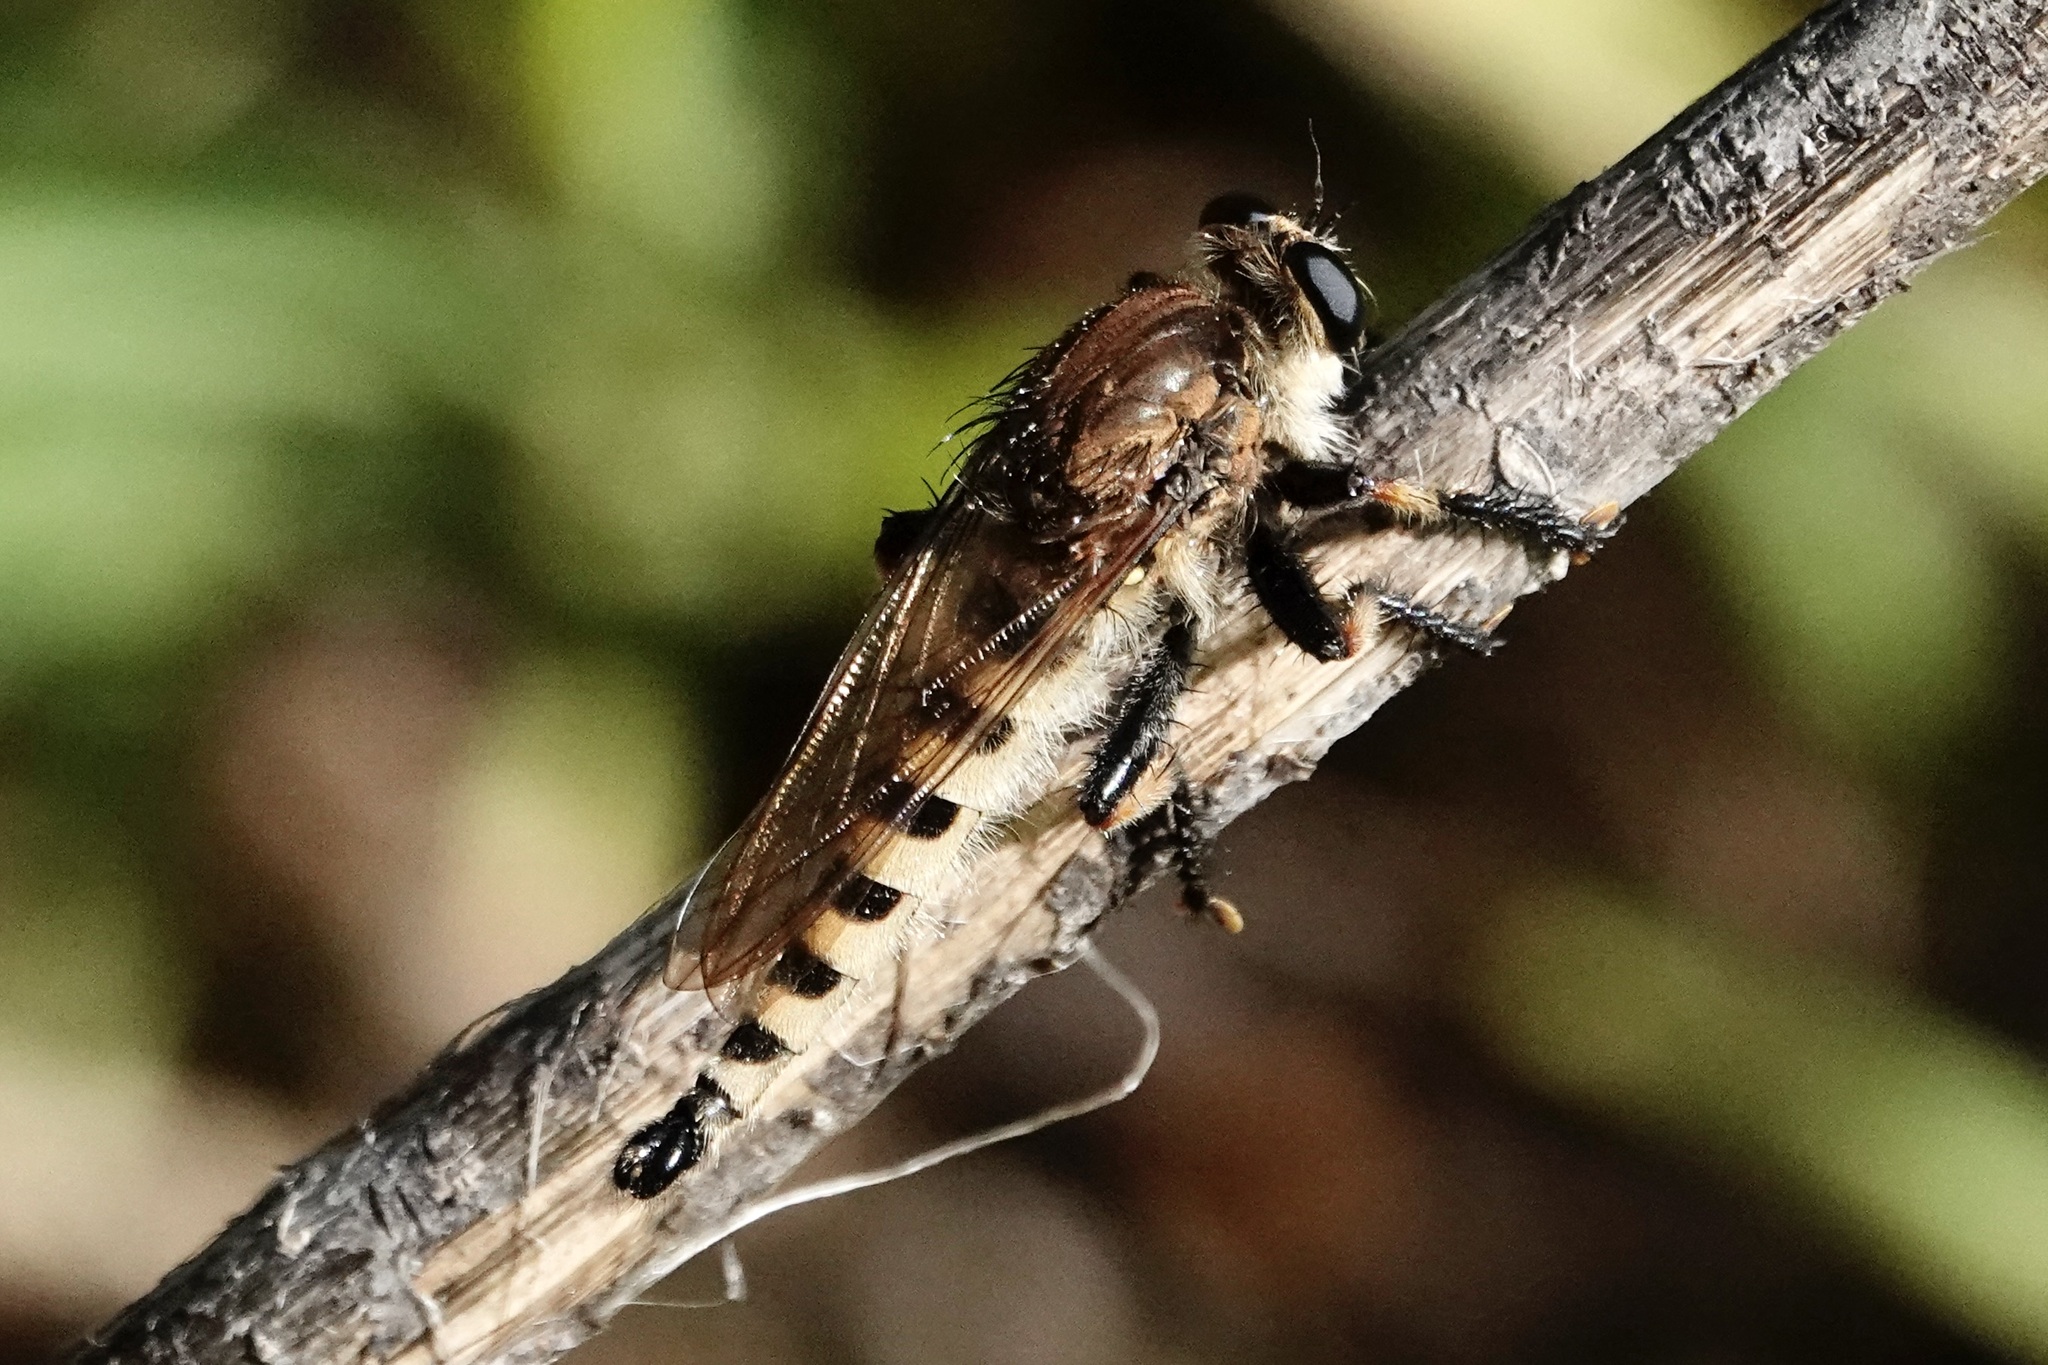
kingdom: Animalia
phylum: Arthropoda
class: Insecta
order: Diptera
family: Asilidae
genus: Promachus
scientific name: Promachus rufipes
